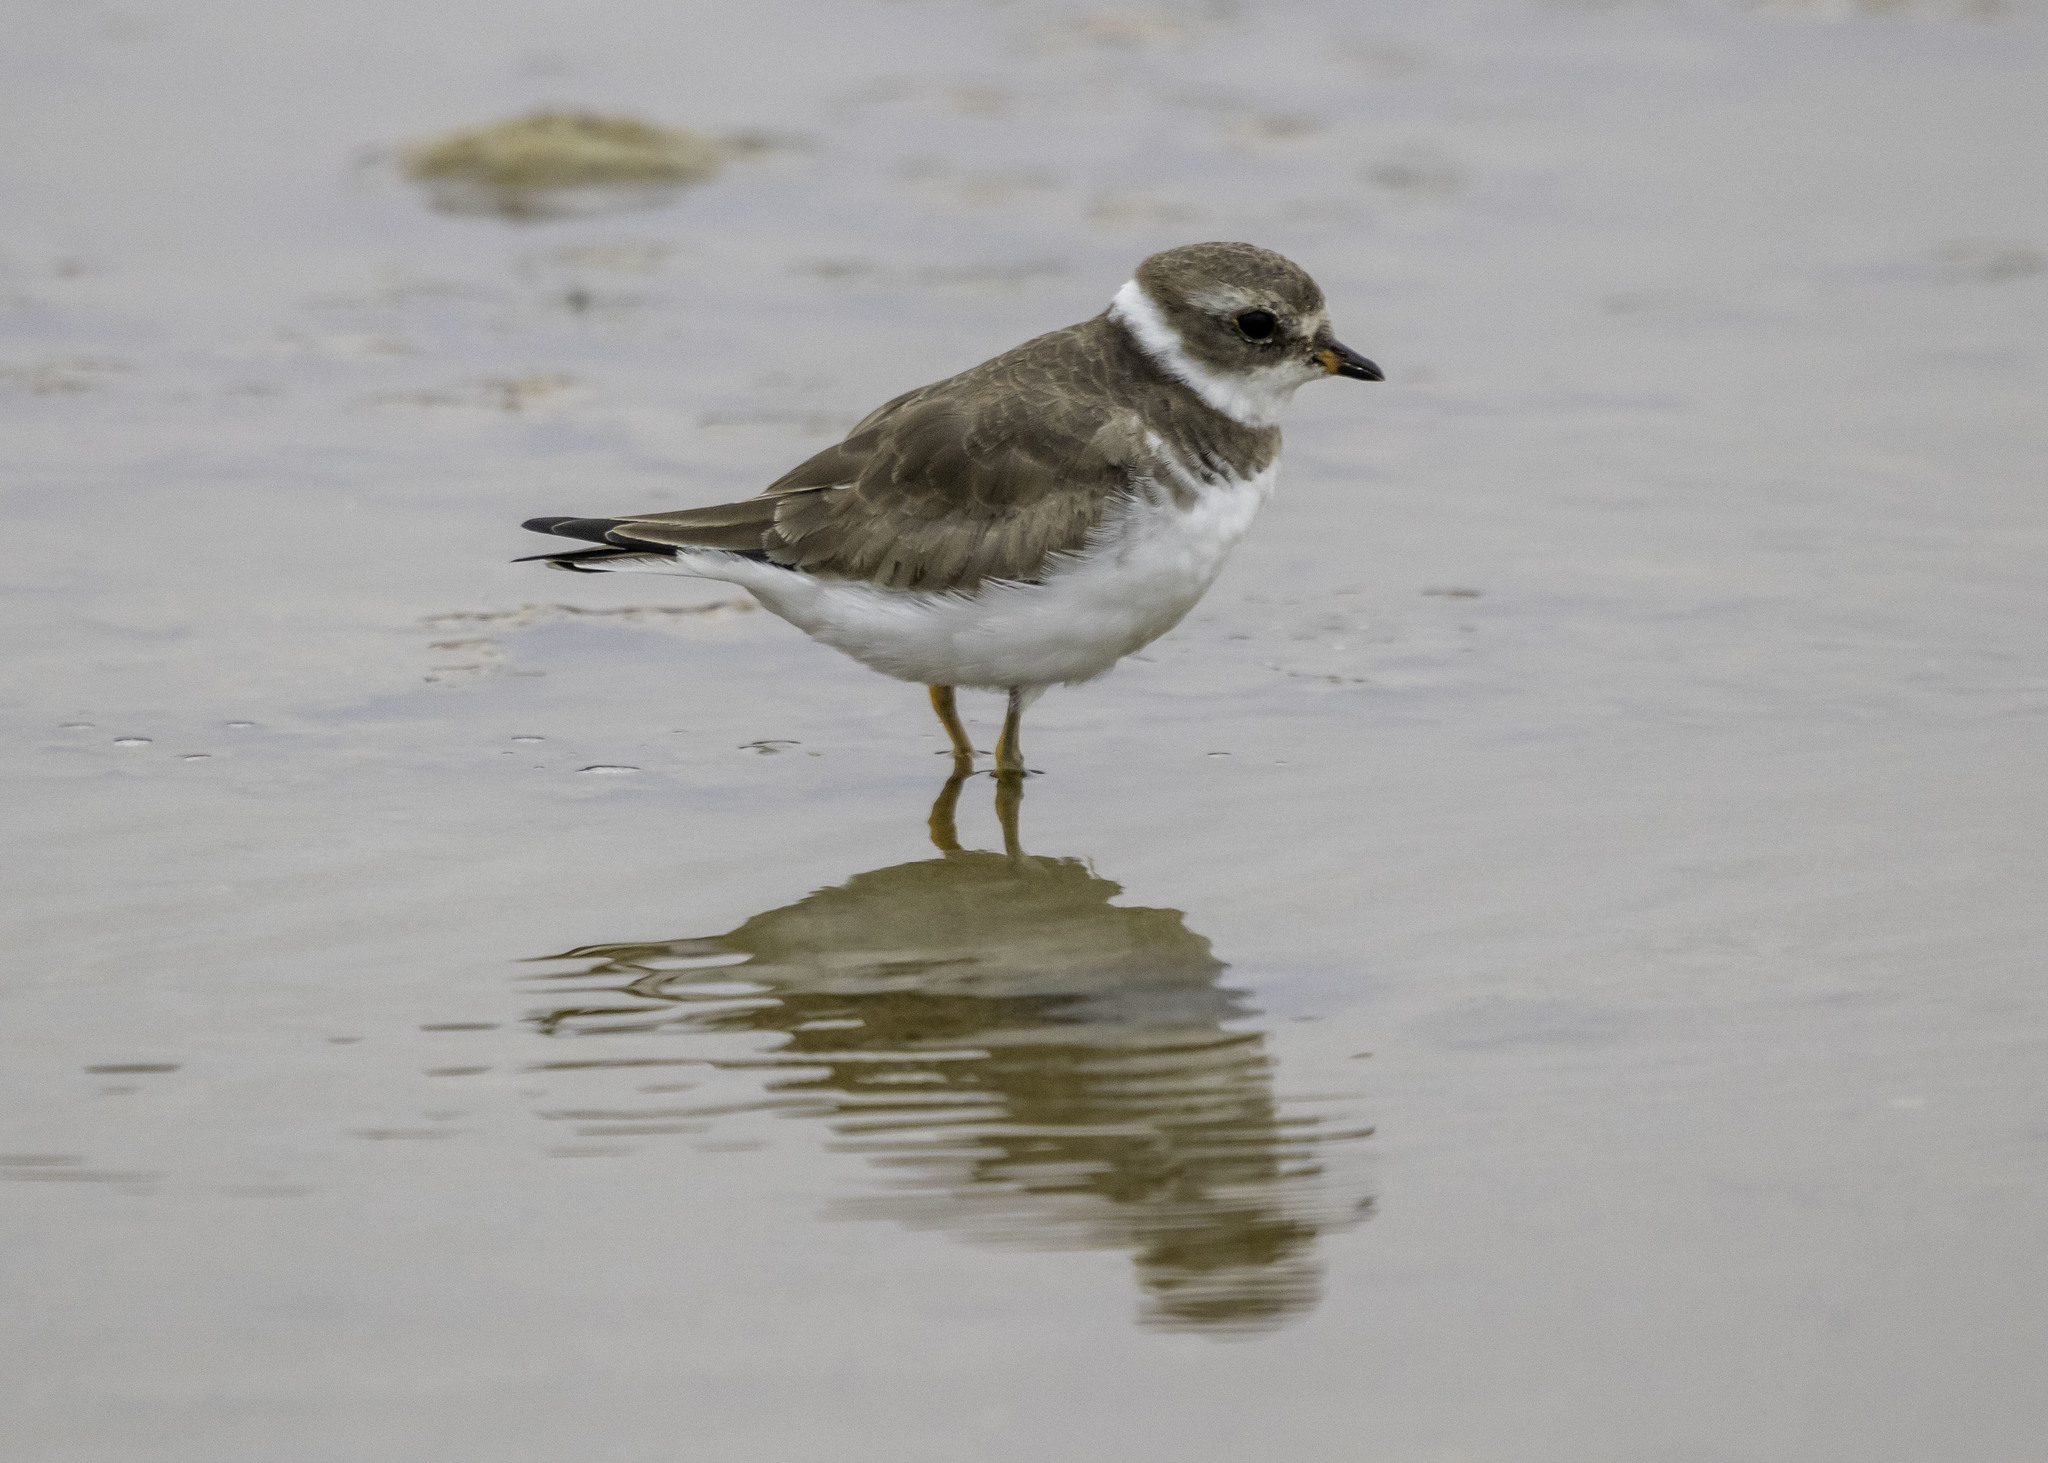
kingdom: Animalia
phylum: Chordata
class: Aves
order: Charadriiformes
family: Charadriidae
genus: Charadrius
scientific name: Charadrius semipalmatus
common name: Semipalmated plover
